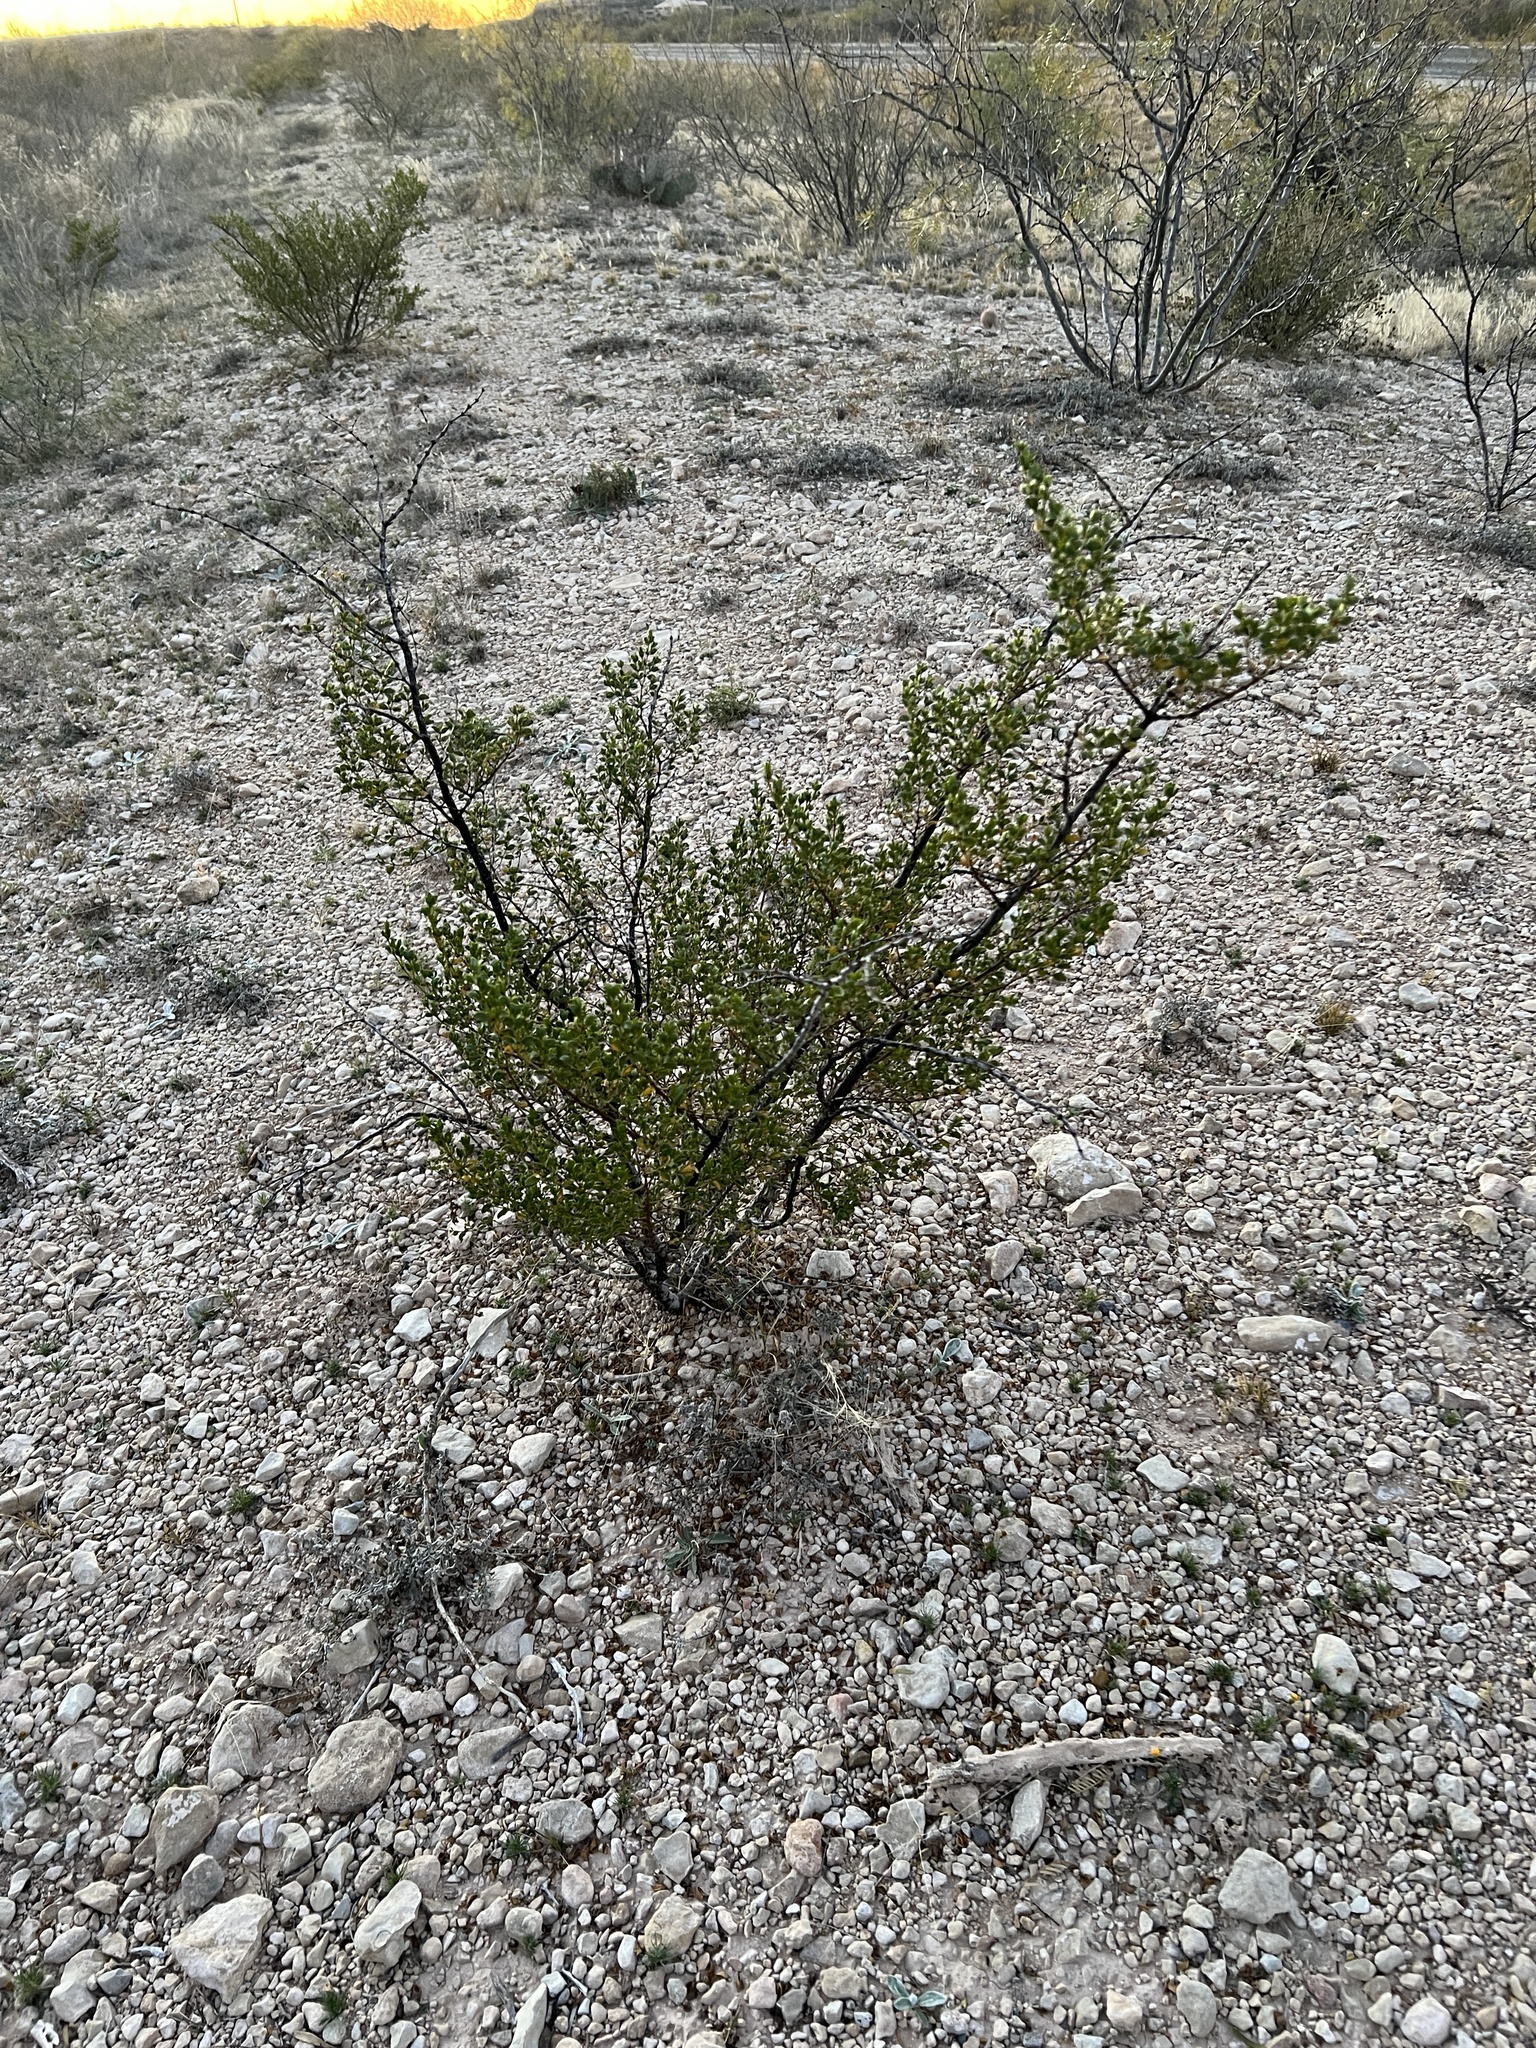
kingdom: Plantae
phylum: Tracheophyta
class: Magnoliopsida
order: Zygophyllales
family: Zygophyllaceae
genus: Larrea
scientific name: Larrea tridentata
